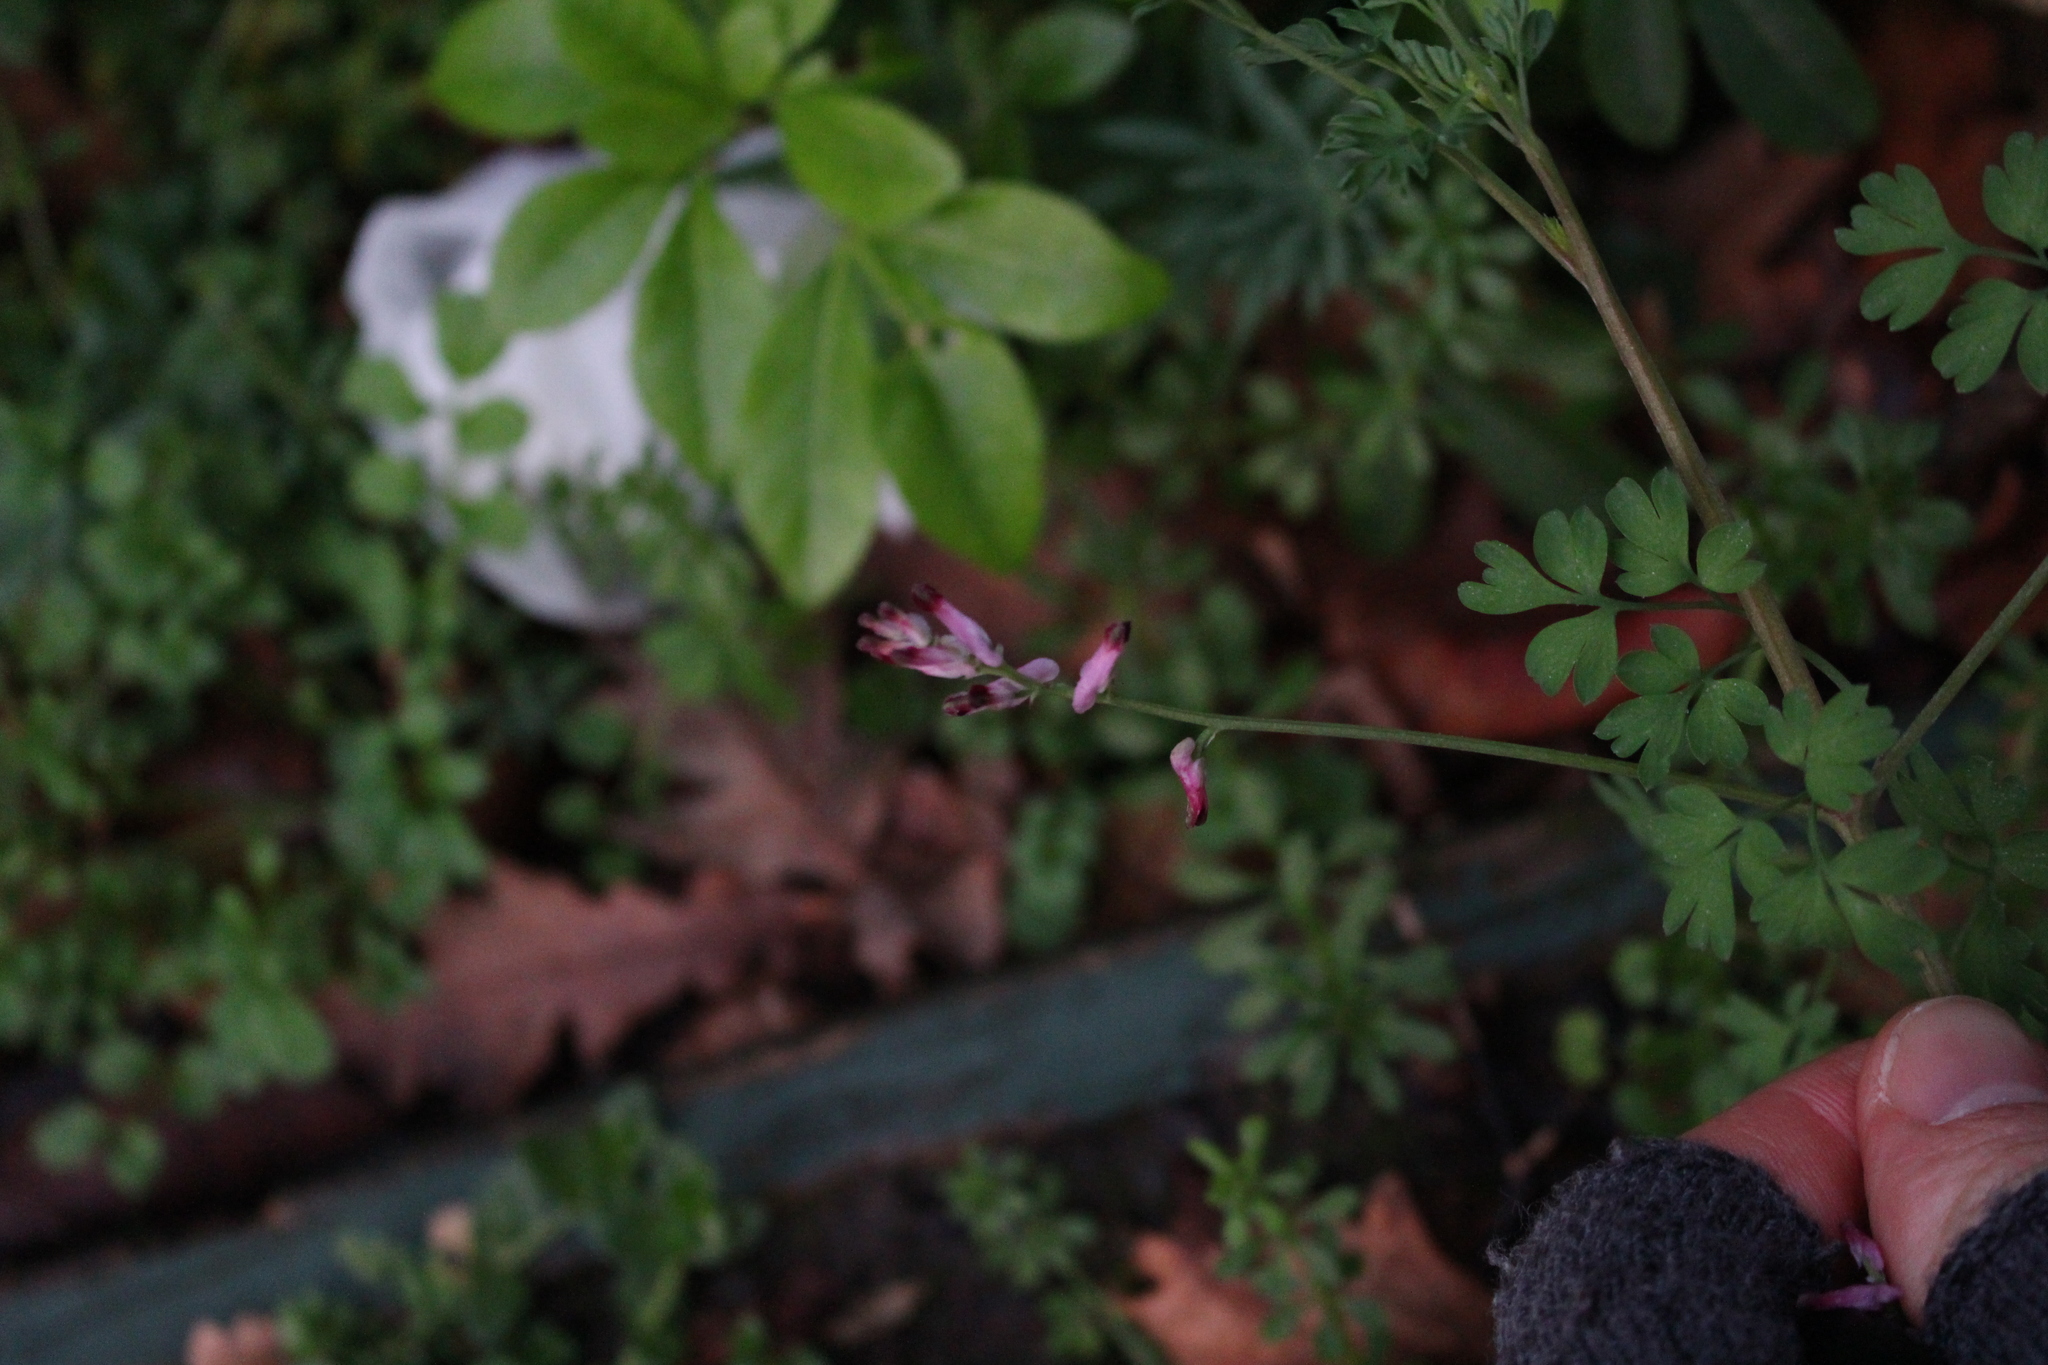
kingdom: Plantae
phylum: Tracheophyta
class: Magnoliopsida
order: Ranunculales
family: Papaveraceae
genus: Fumaria
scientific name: Fumaria muralis
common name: Common ramping-fumitory
